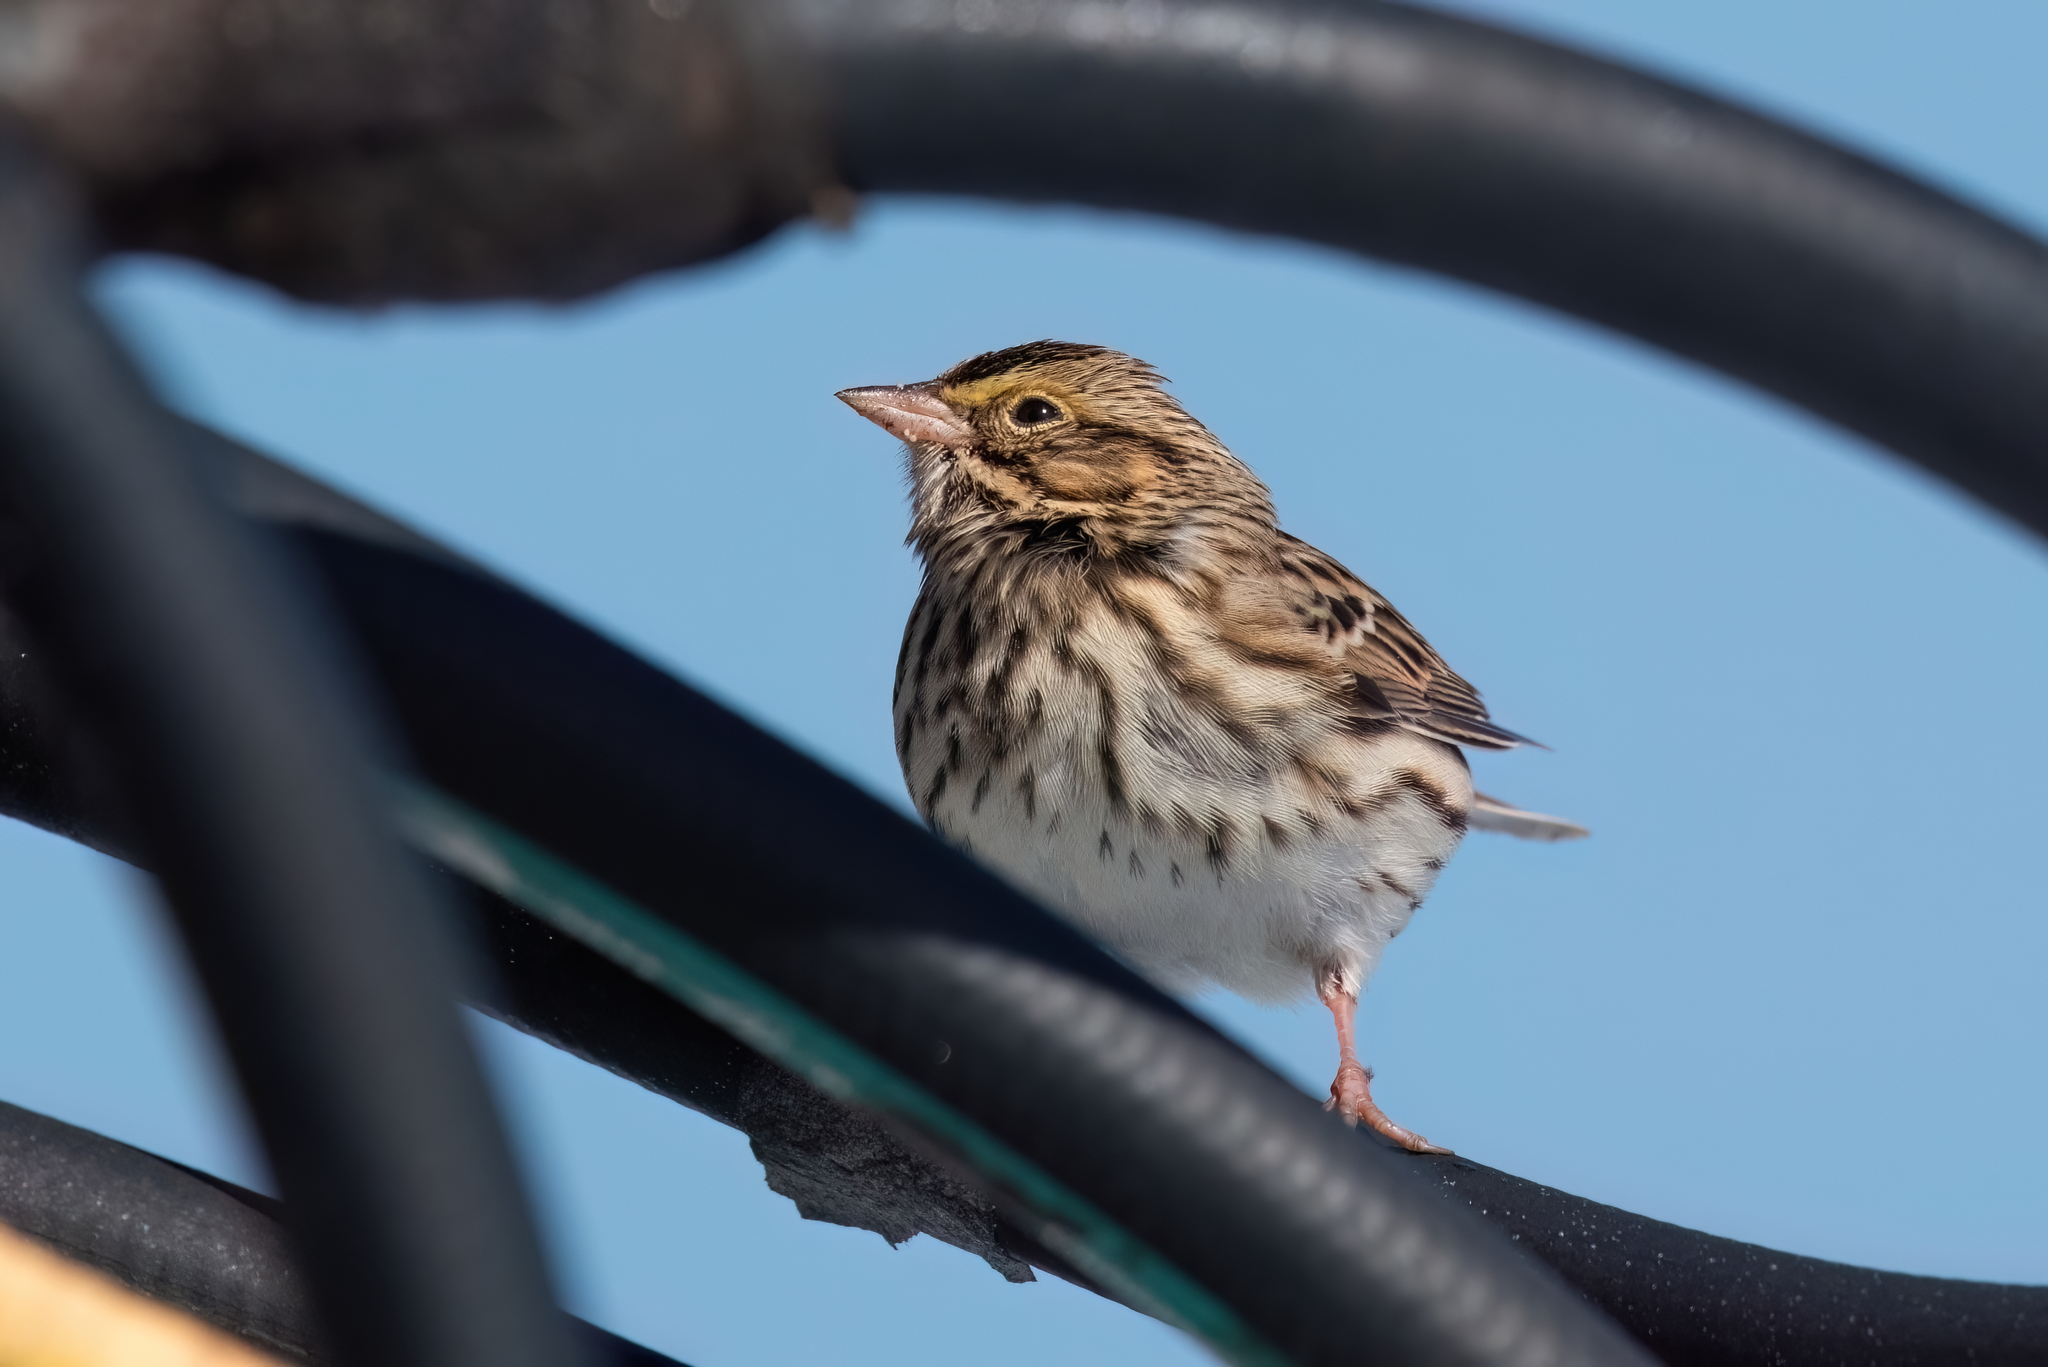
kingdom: Animalia
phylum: Chordata
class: Aves
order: Passeriformes
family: Passerellidae
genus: Passerculus
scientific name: Passerculus sandwichensis
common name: Savannah sparrow
